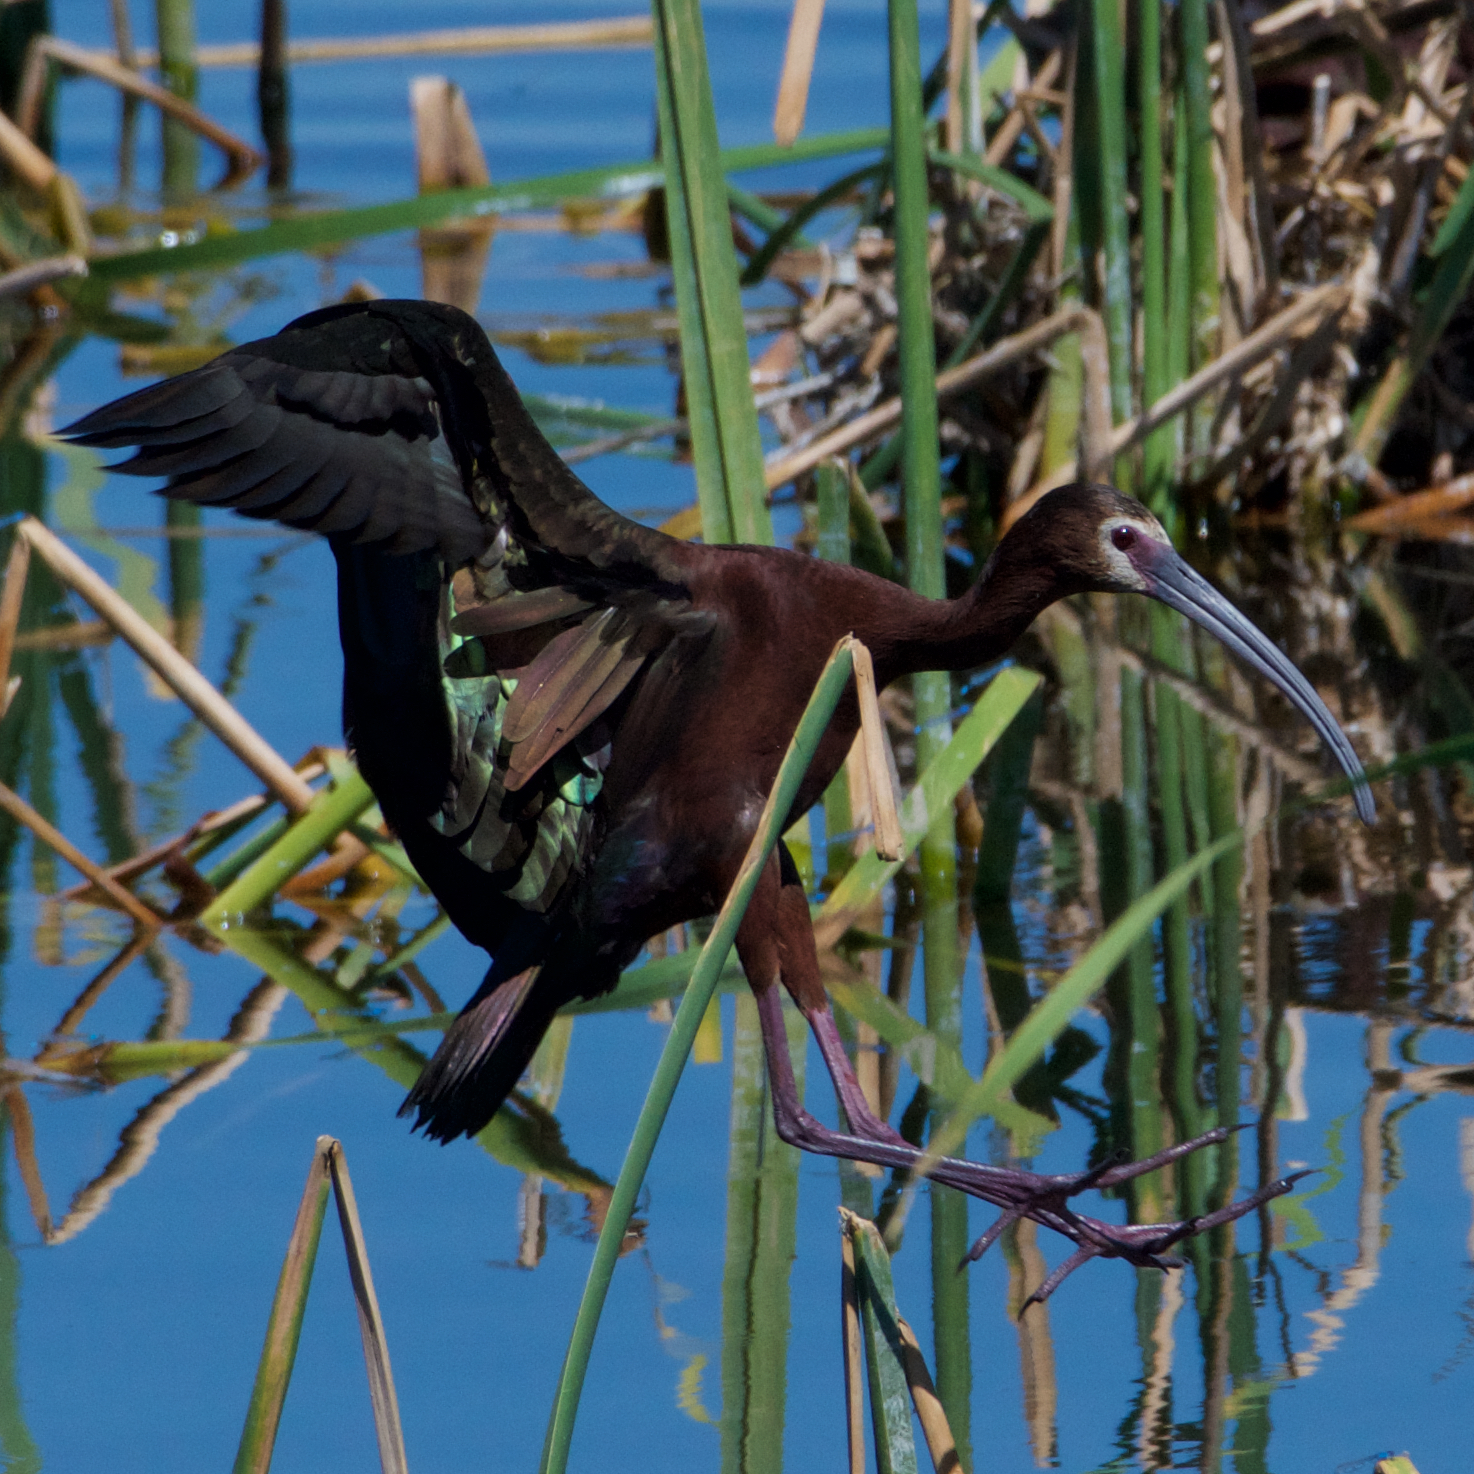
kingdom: Animalia
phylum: Chordata
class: Aves
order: Pelecaniformes
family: Threskiornithidae
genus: Plegadis
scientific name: Plegadis chihi
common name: White-faced ibis
